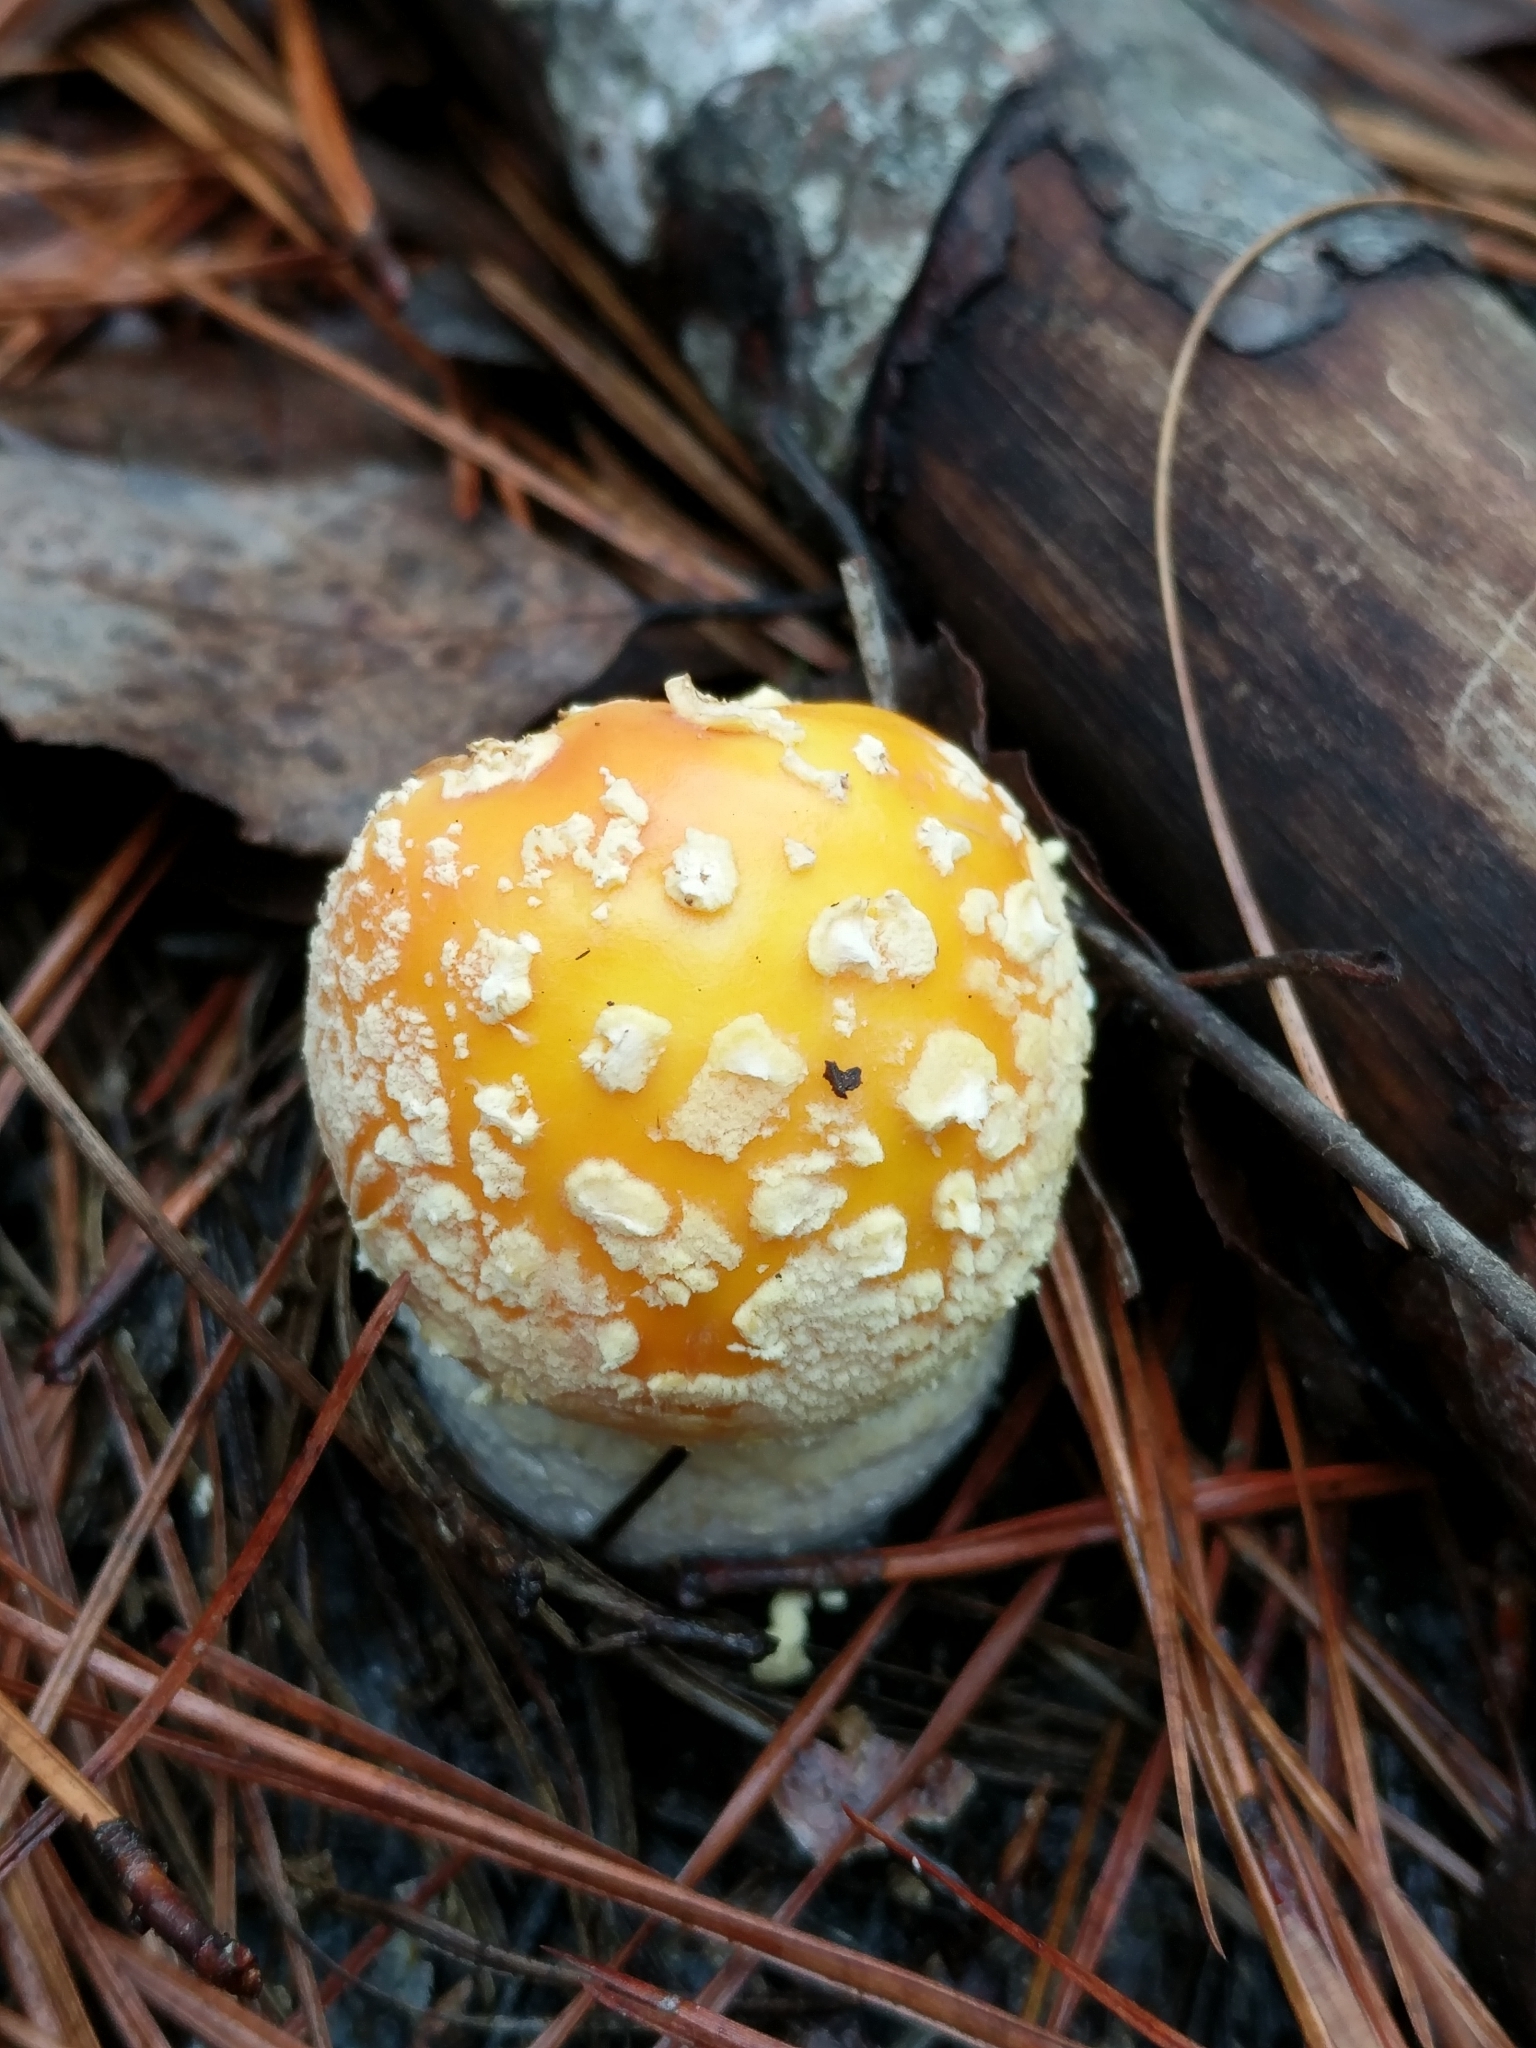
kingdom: Fungi
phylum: Basidiomycota
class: Agaricomycetes
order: Agaricales
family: Amanitaceae
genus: Amanita
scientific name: Amanita persicina
